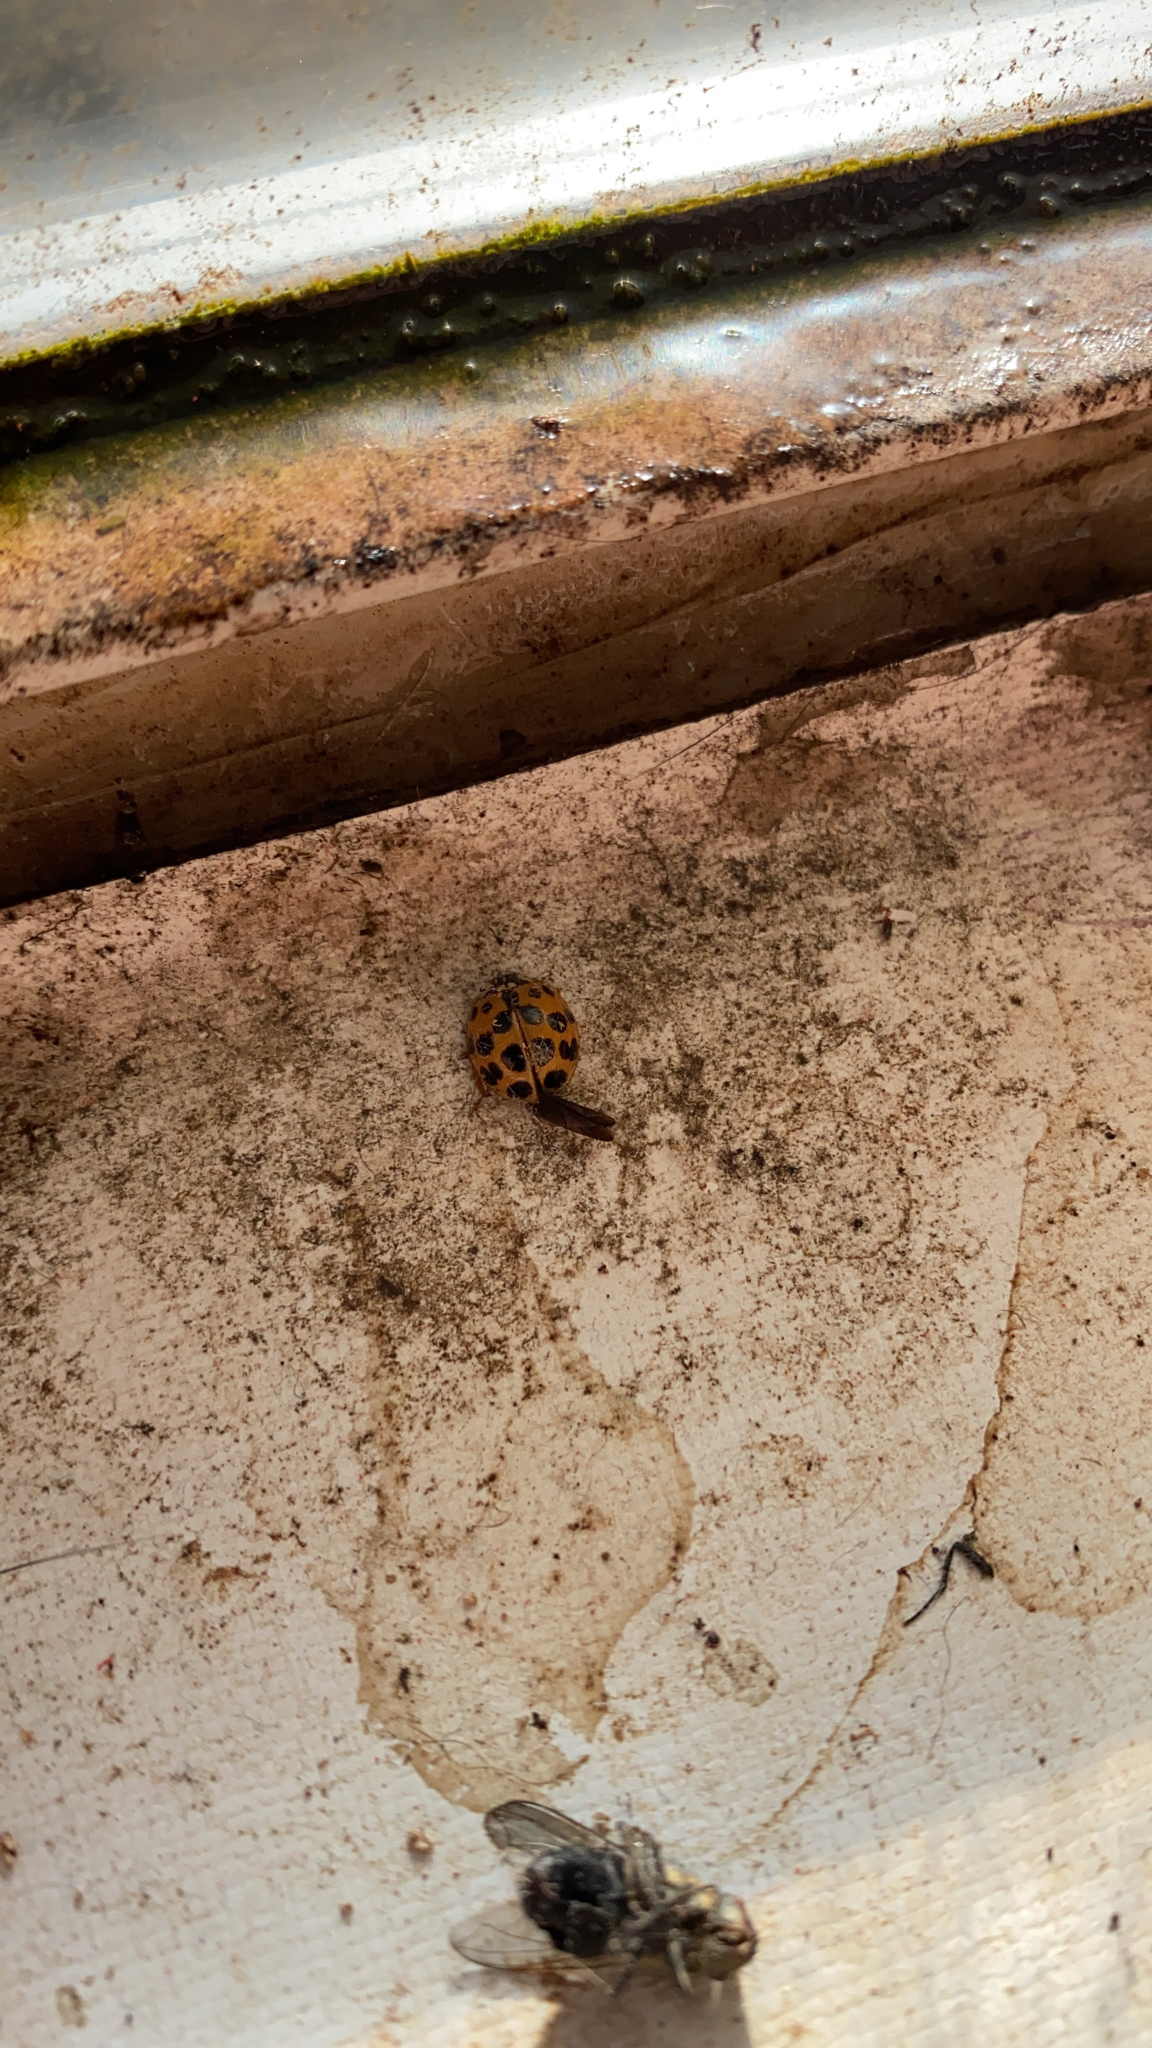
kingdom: Animalia
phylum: Arthropoda
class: Insecta
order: Coleoptera
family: Coccinellidae
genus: Harmonia
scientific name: Harmonia axyridis
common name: Harlequin ladybird
